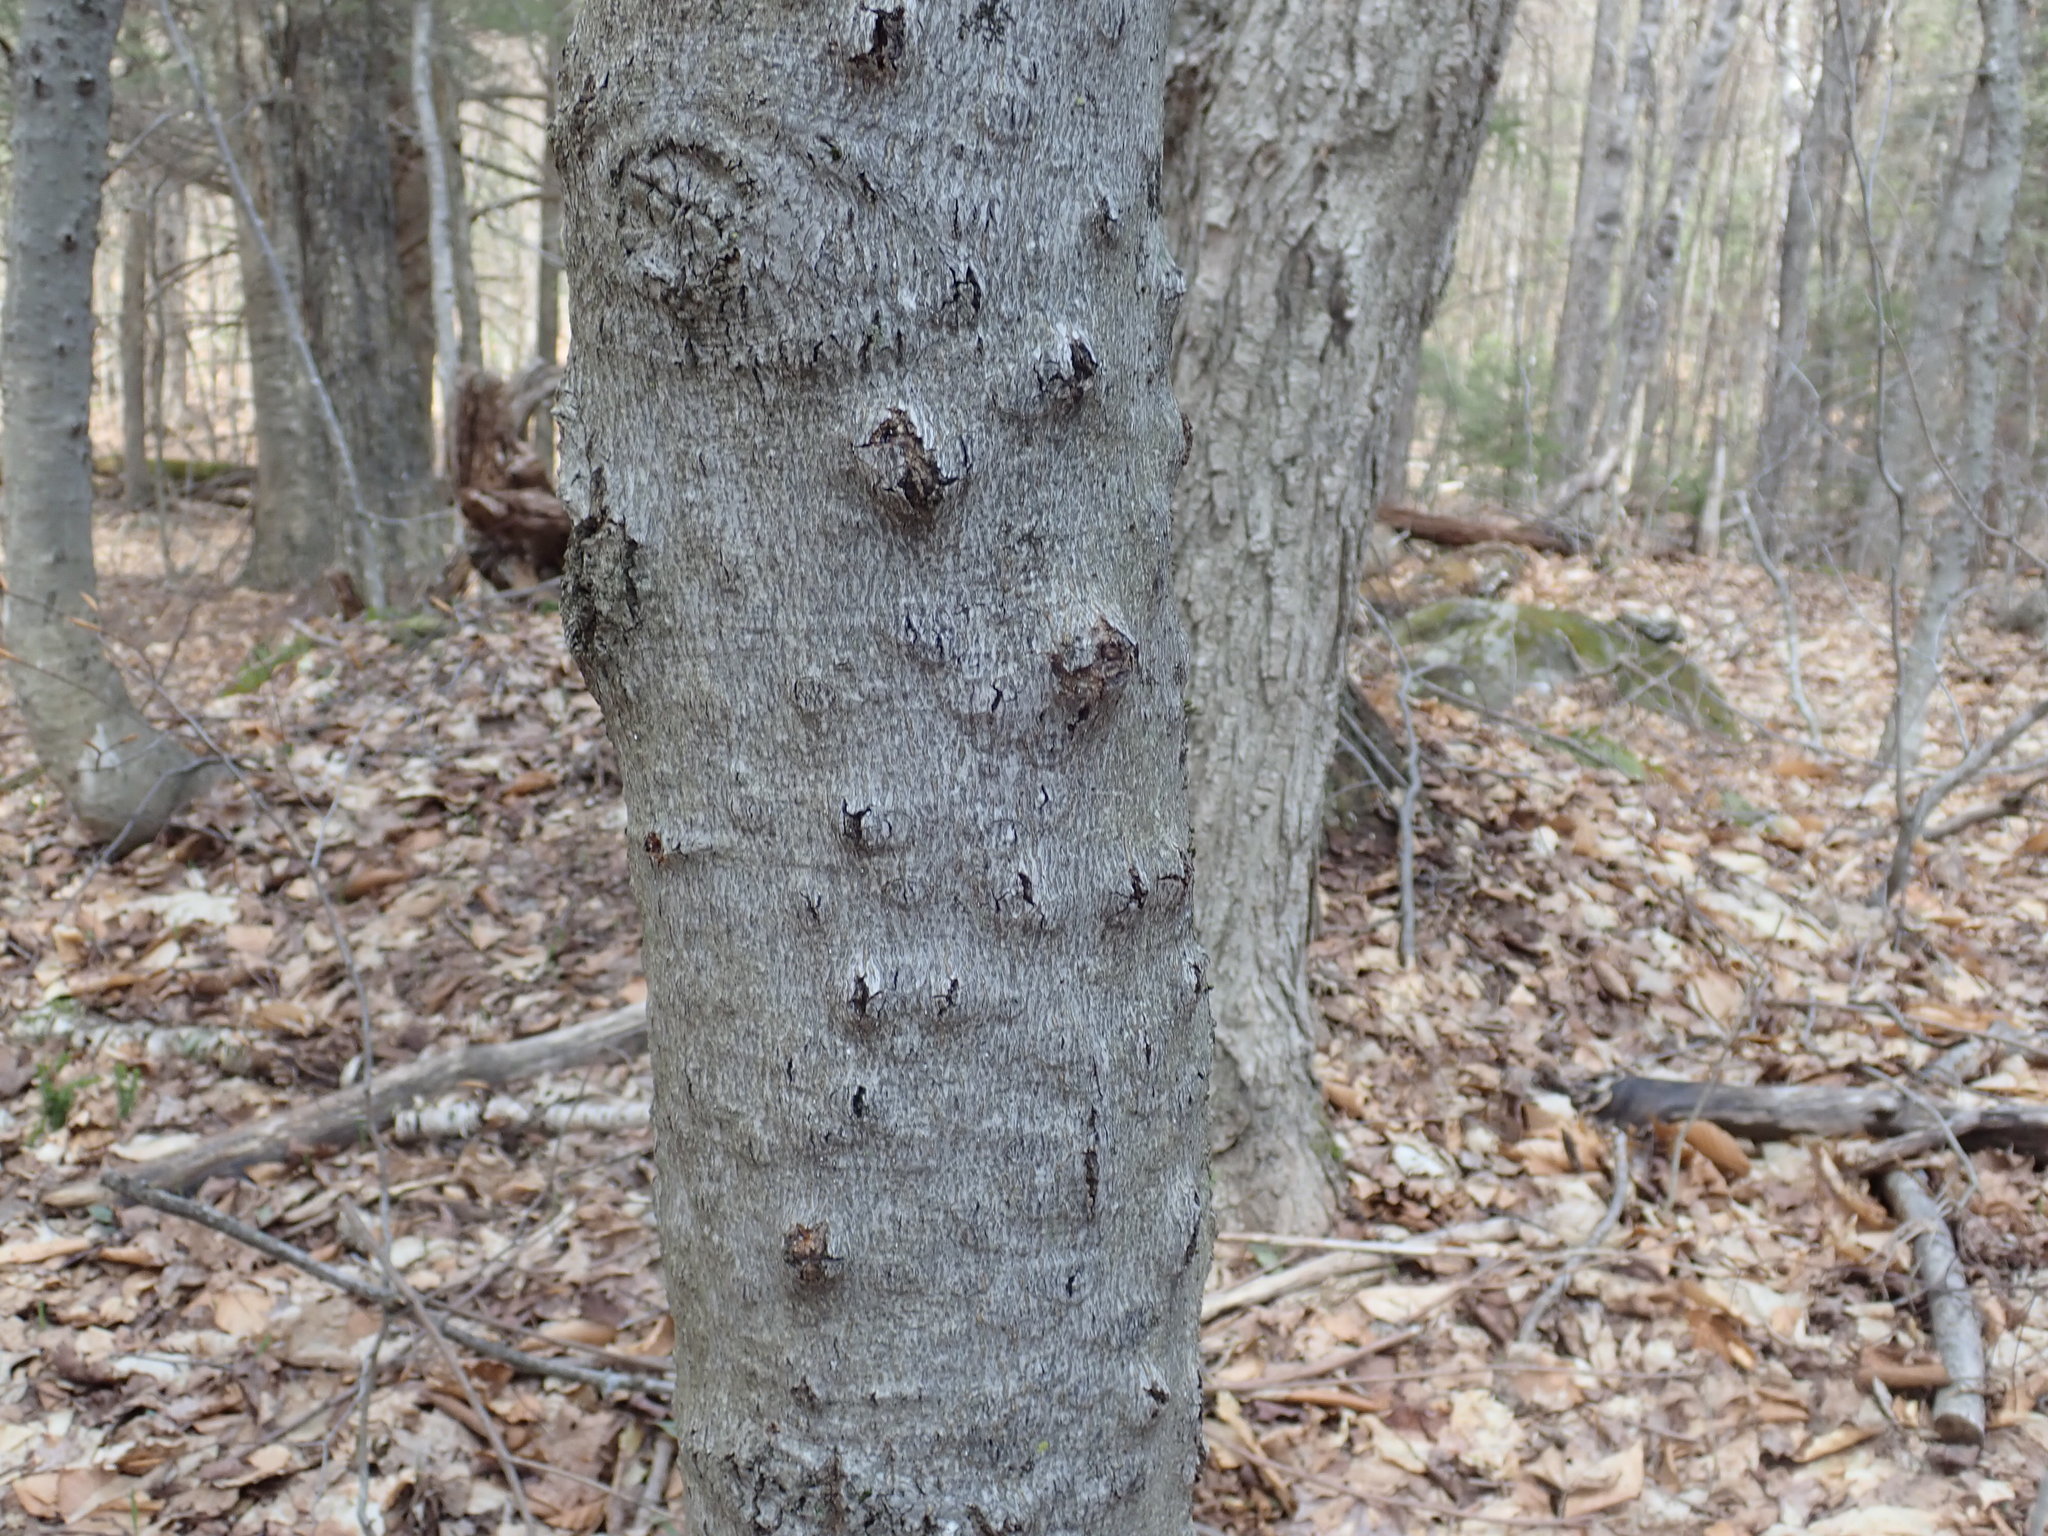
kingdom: Fungi
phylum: Ascomycota
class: Sordariomycetes
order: Hypocreales
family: Nectriaceae
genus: Neonectria
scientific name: Neonectria faginata
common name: Beech bark canker
